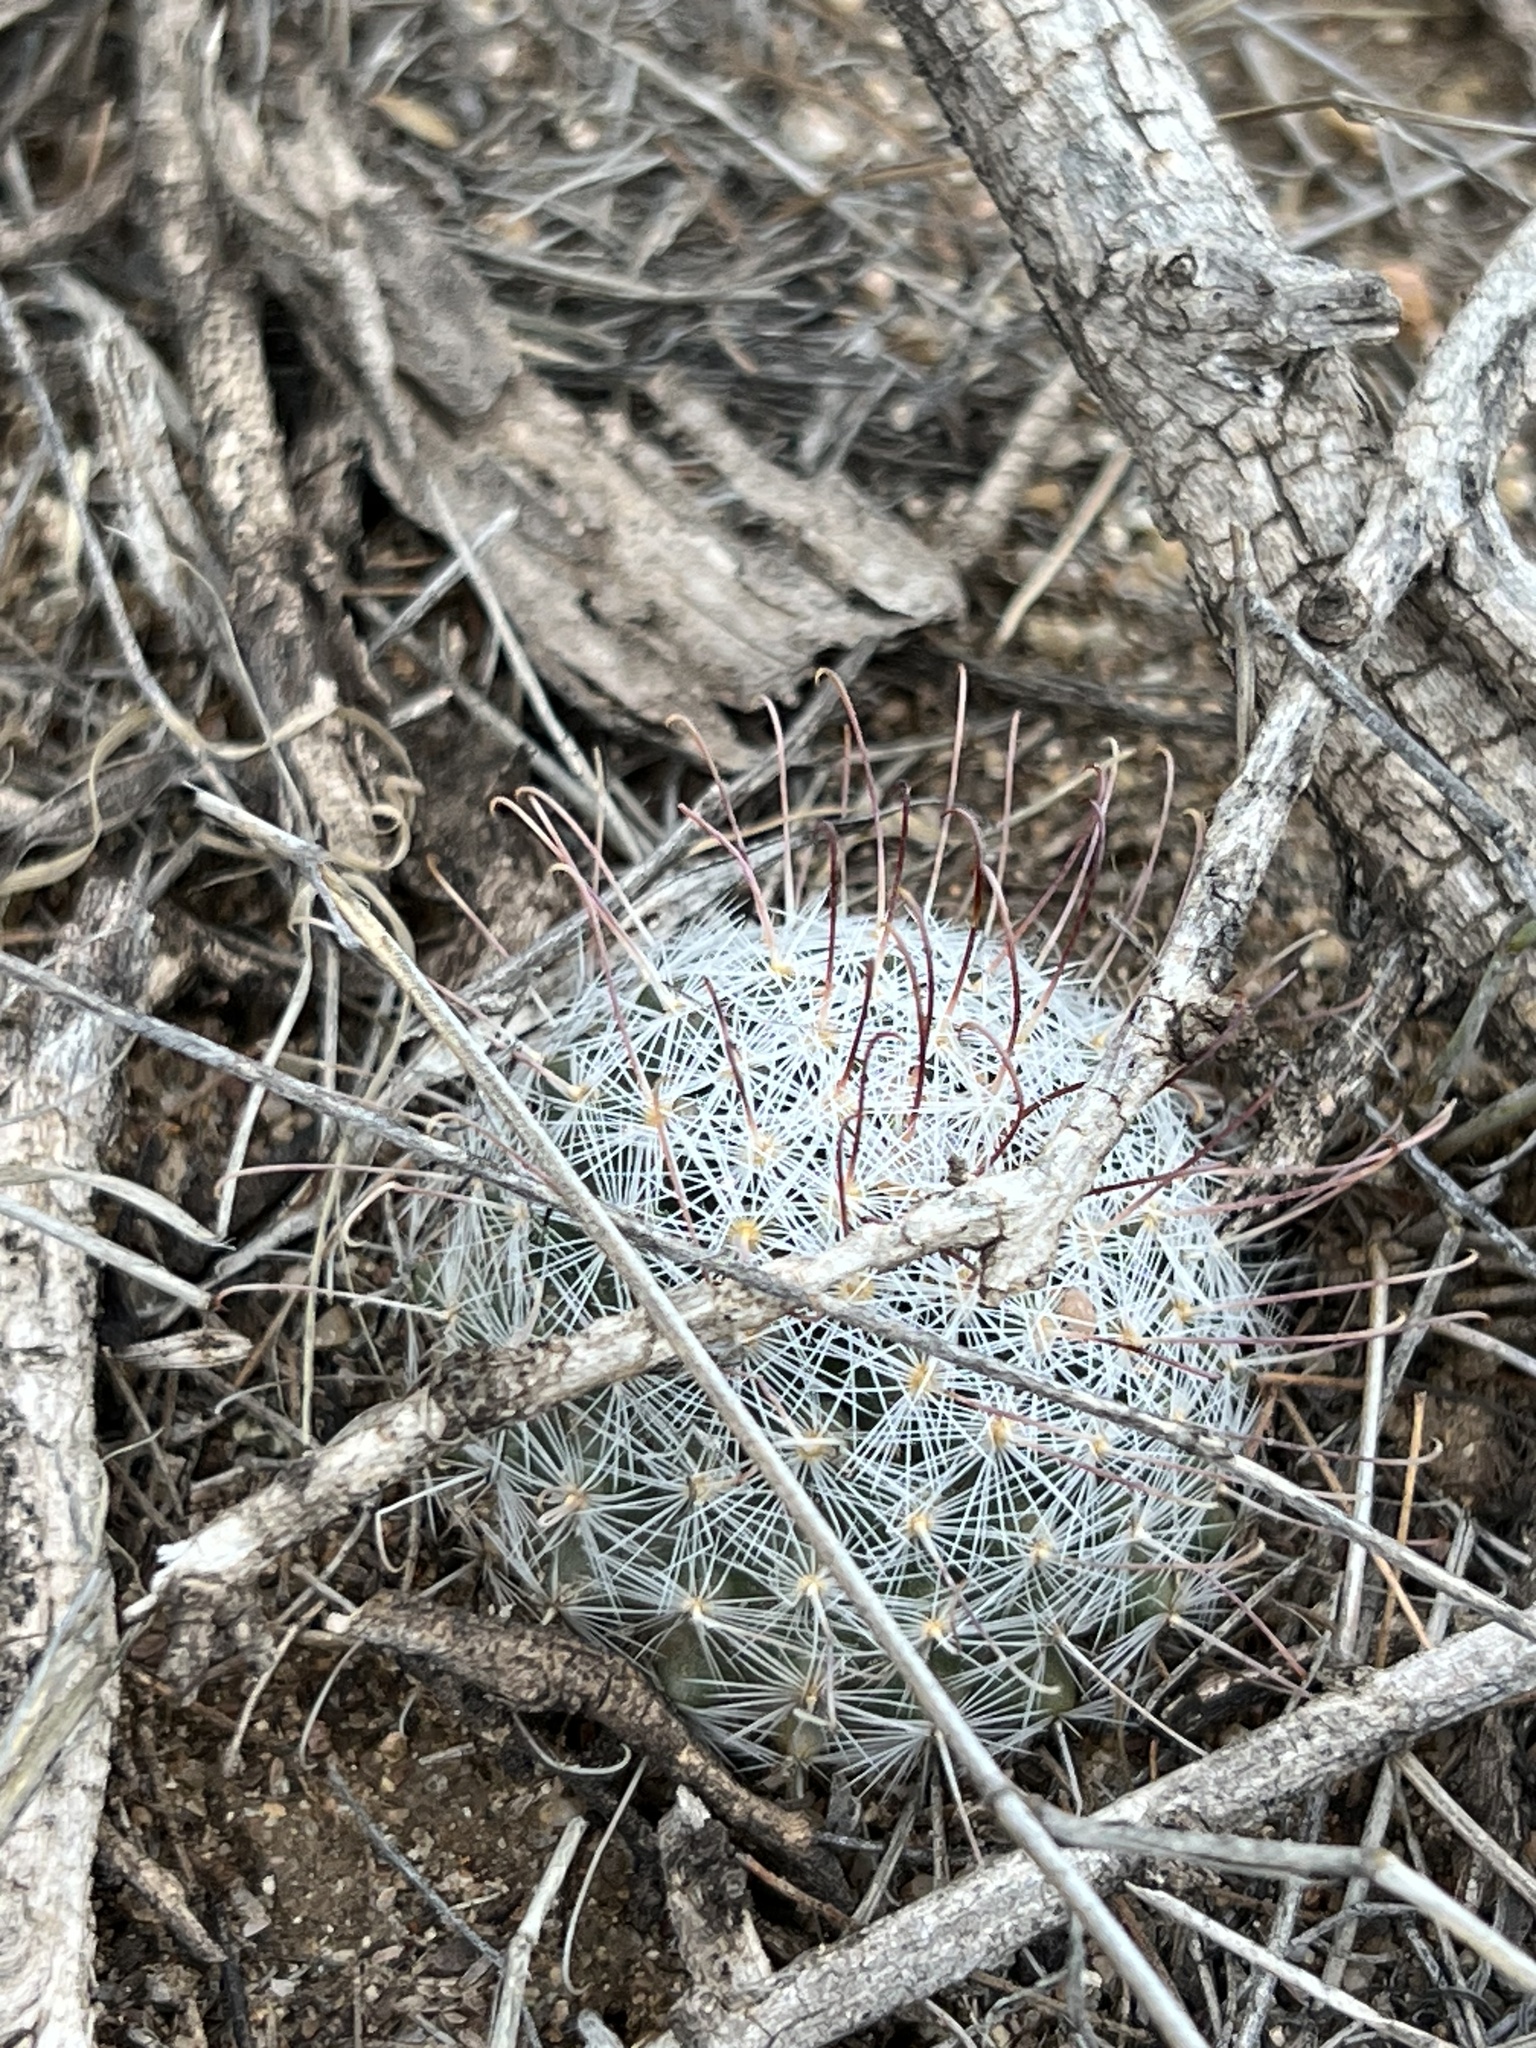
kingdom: Plantae
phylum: Tracheophyta
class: Magnoliopsida
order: Caryophyllales
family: Cactaceae
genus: Cochemiea
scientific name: Cochemiea grahamii
